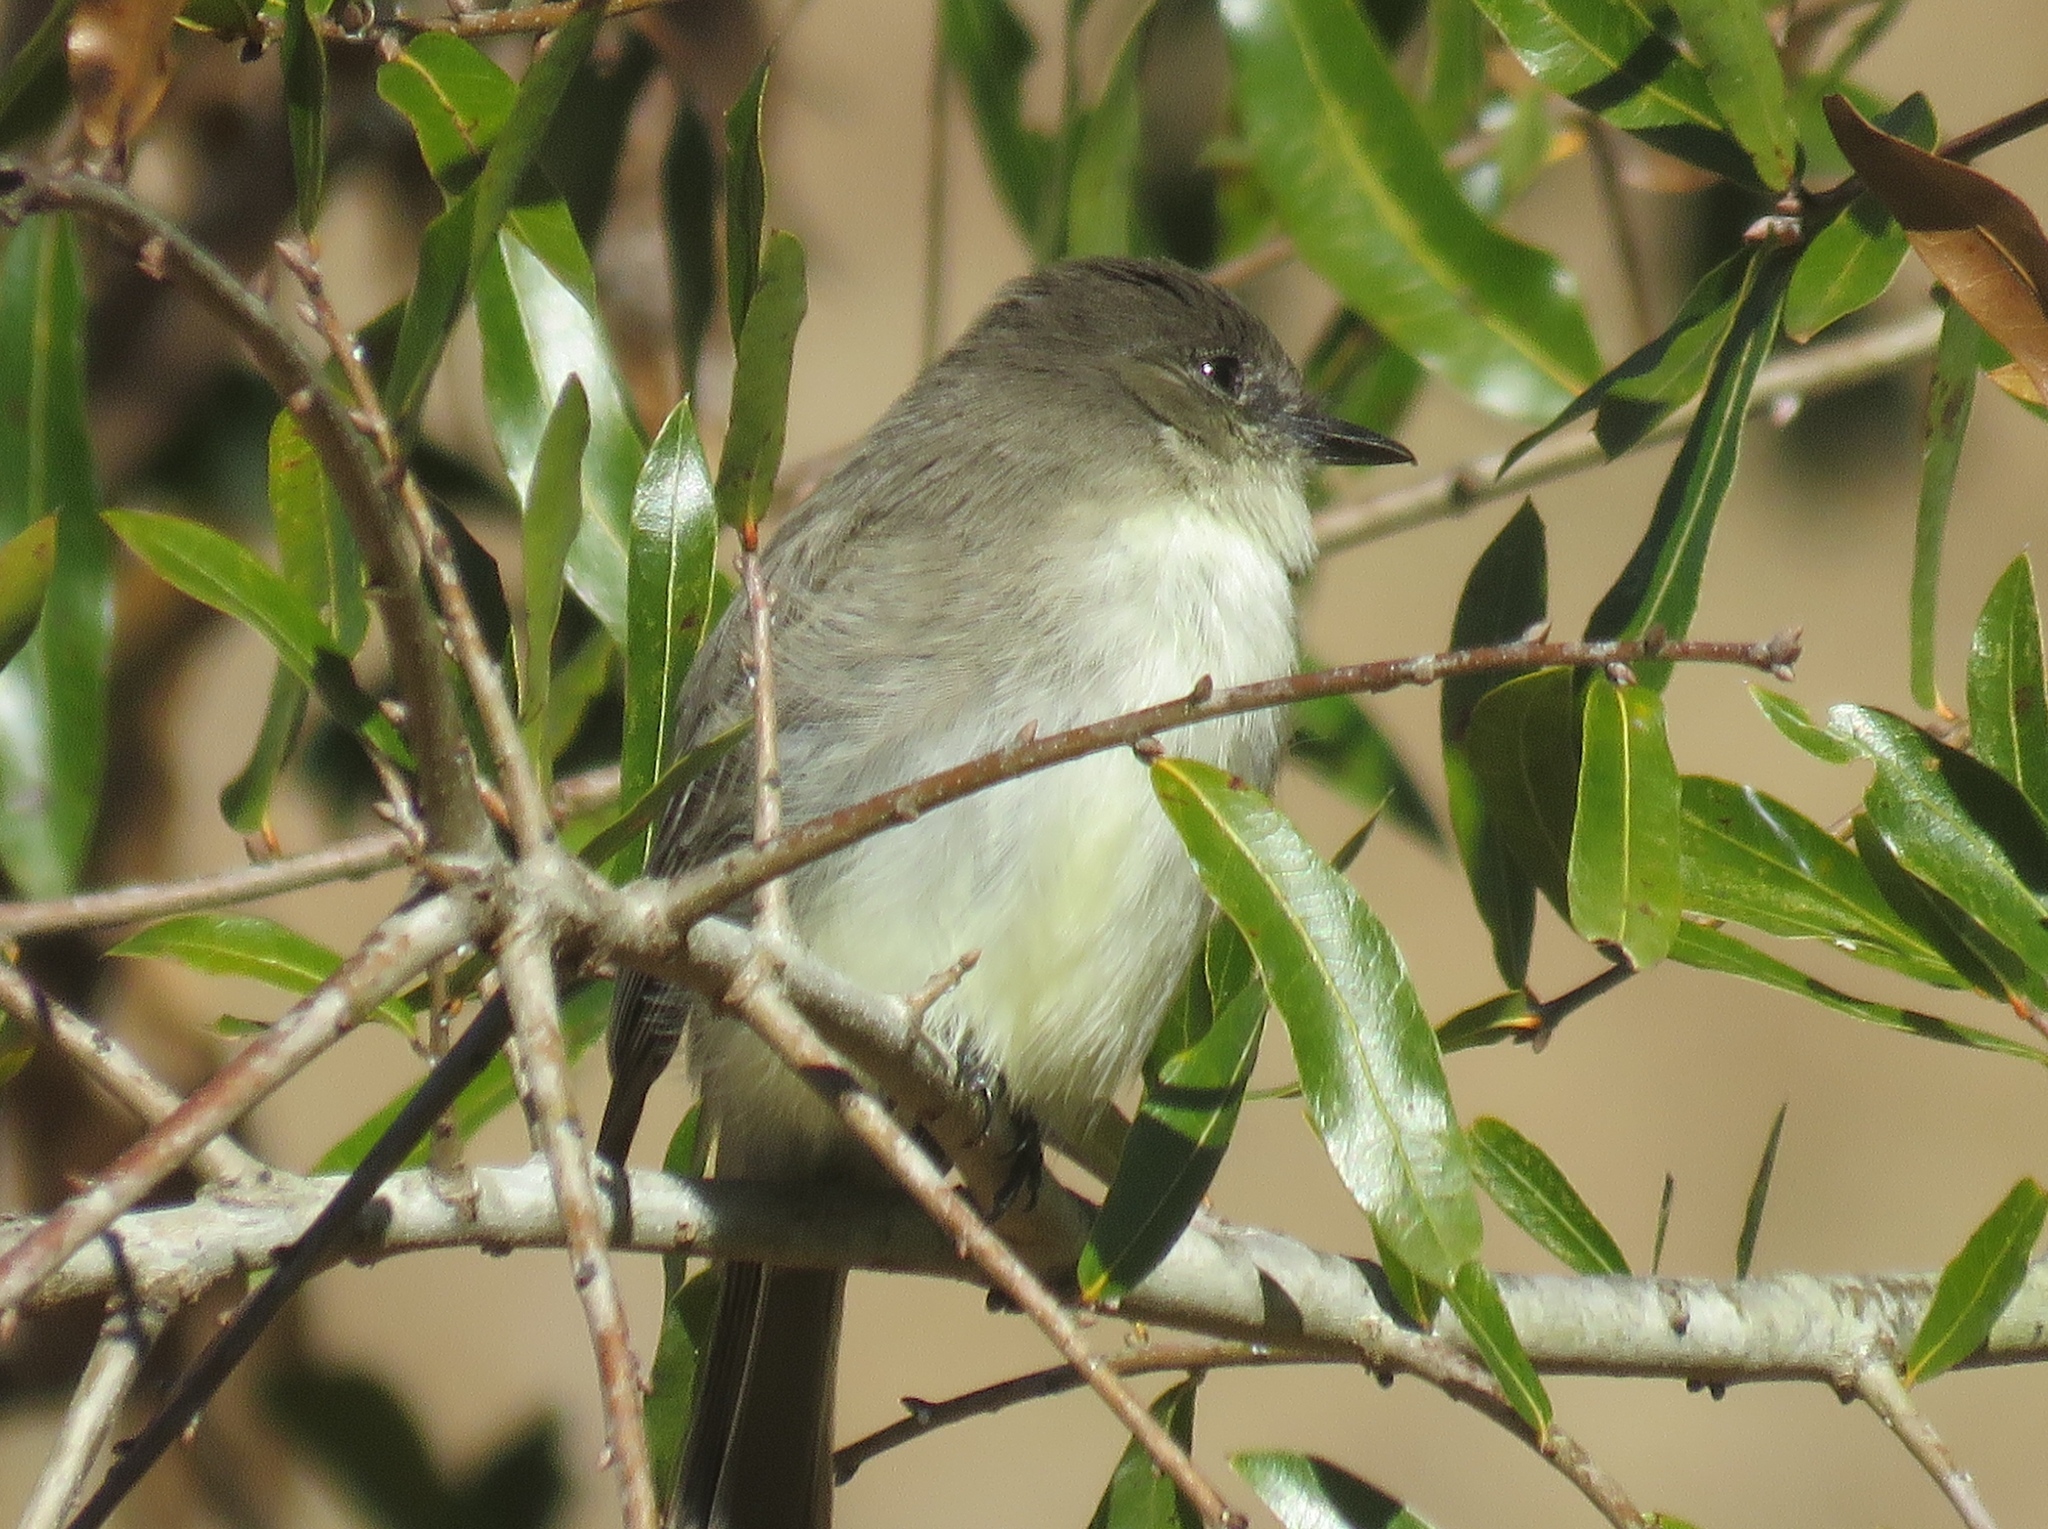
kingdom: Animalia
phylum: Chordata
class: Aves
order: Passeriformes
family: Tyrannidae
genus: Sayornis
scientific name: Sayornis phoebe
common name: Eastern phoebe
